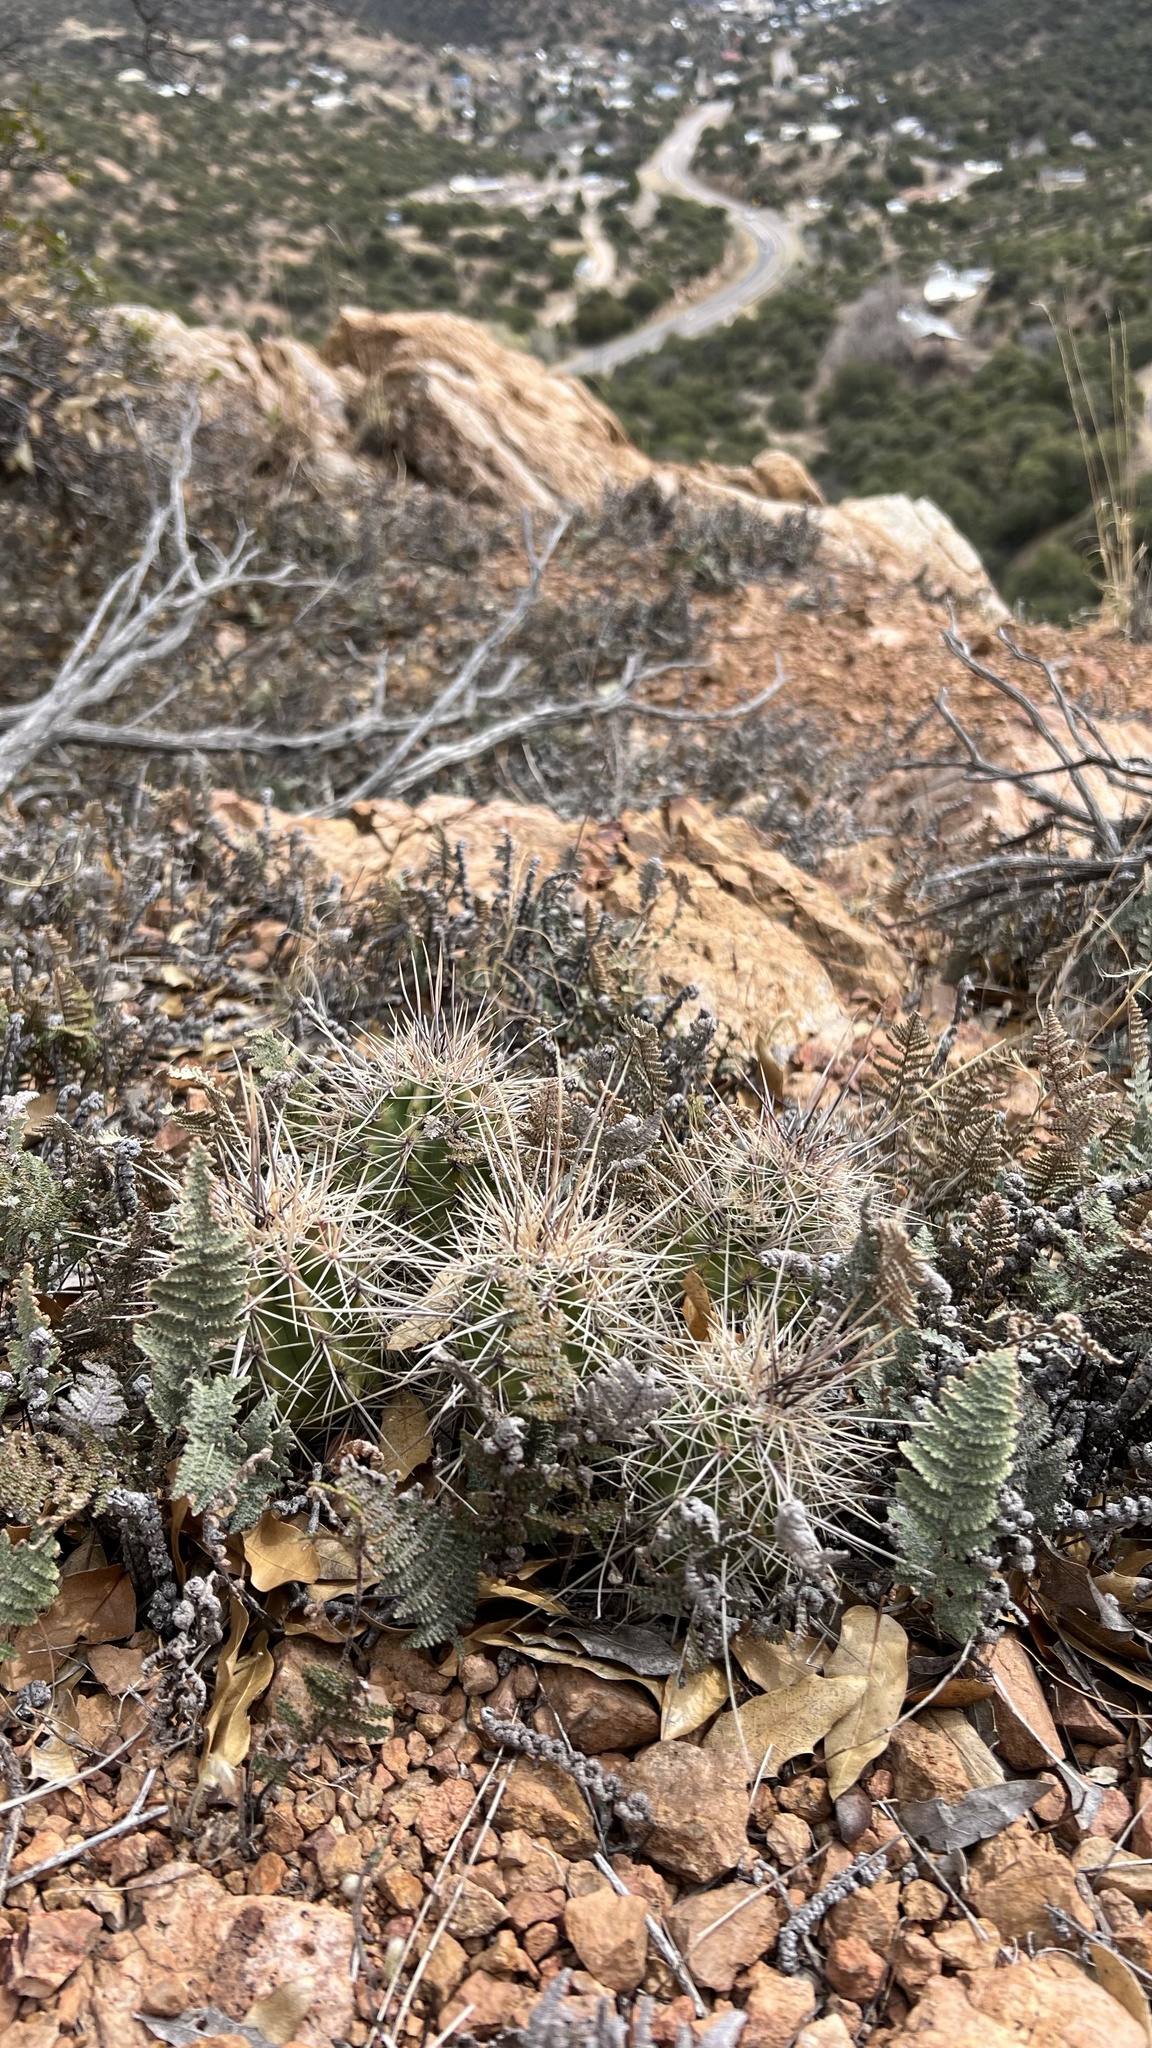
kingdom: Plantae
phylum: Tracheophyta
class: Magnoliopsida
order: Caryophyllales
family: Cactaceae
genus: Echinocereus
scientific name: Echinocereus coccineus
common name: Scarlet hedgehog cactus
